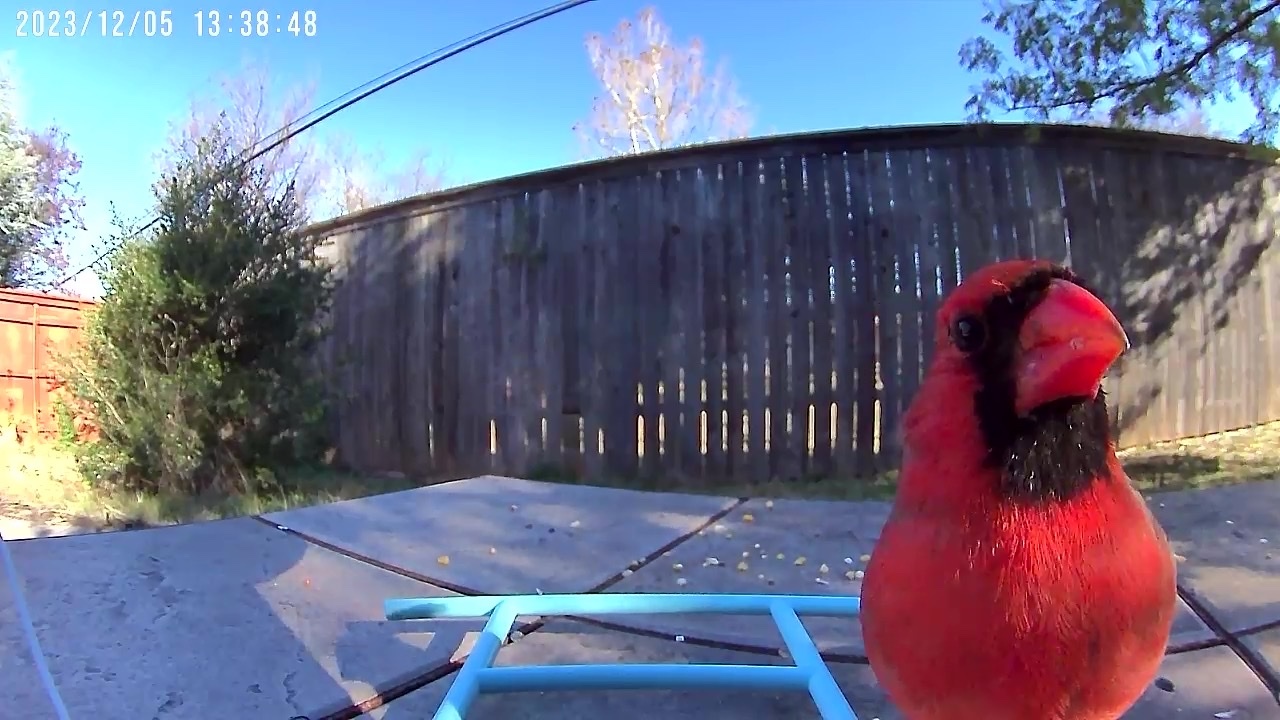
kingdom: Animalia
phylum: Chordata
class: Aves
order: Passeriformes
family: Cardinalidae
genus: Cardinalis
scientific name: Cardinalis cardinalis
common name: Northern cardinal
